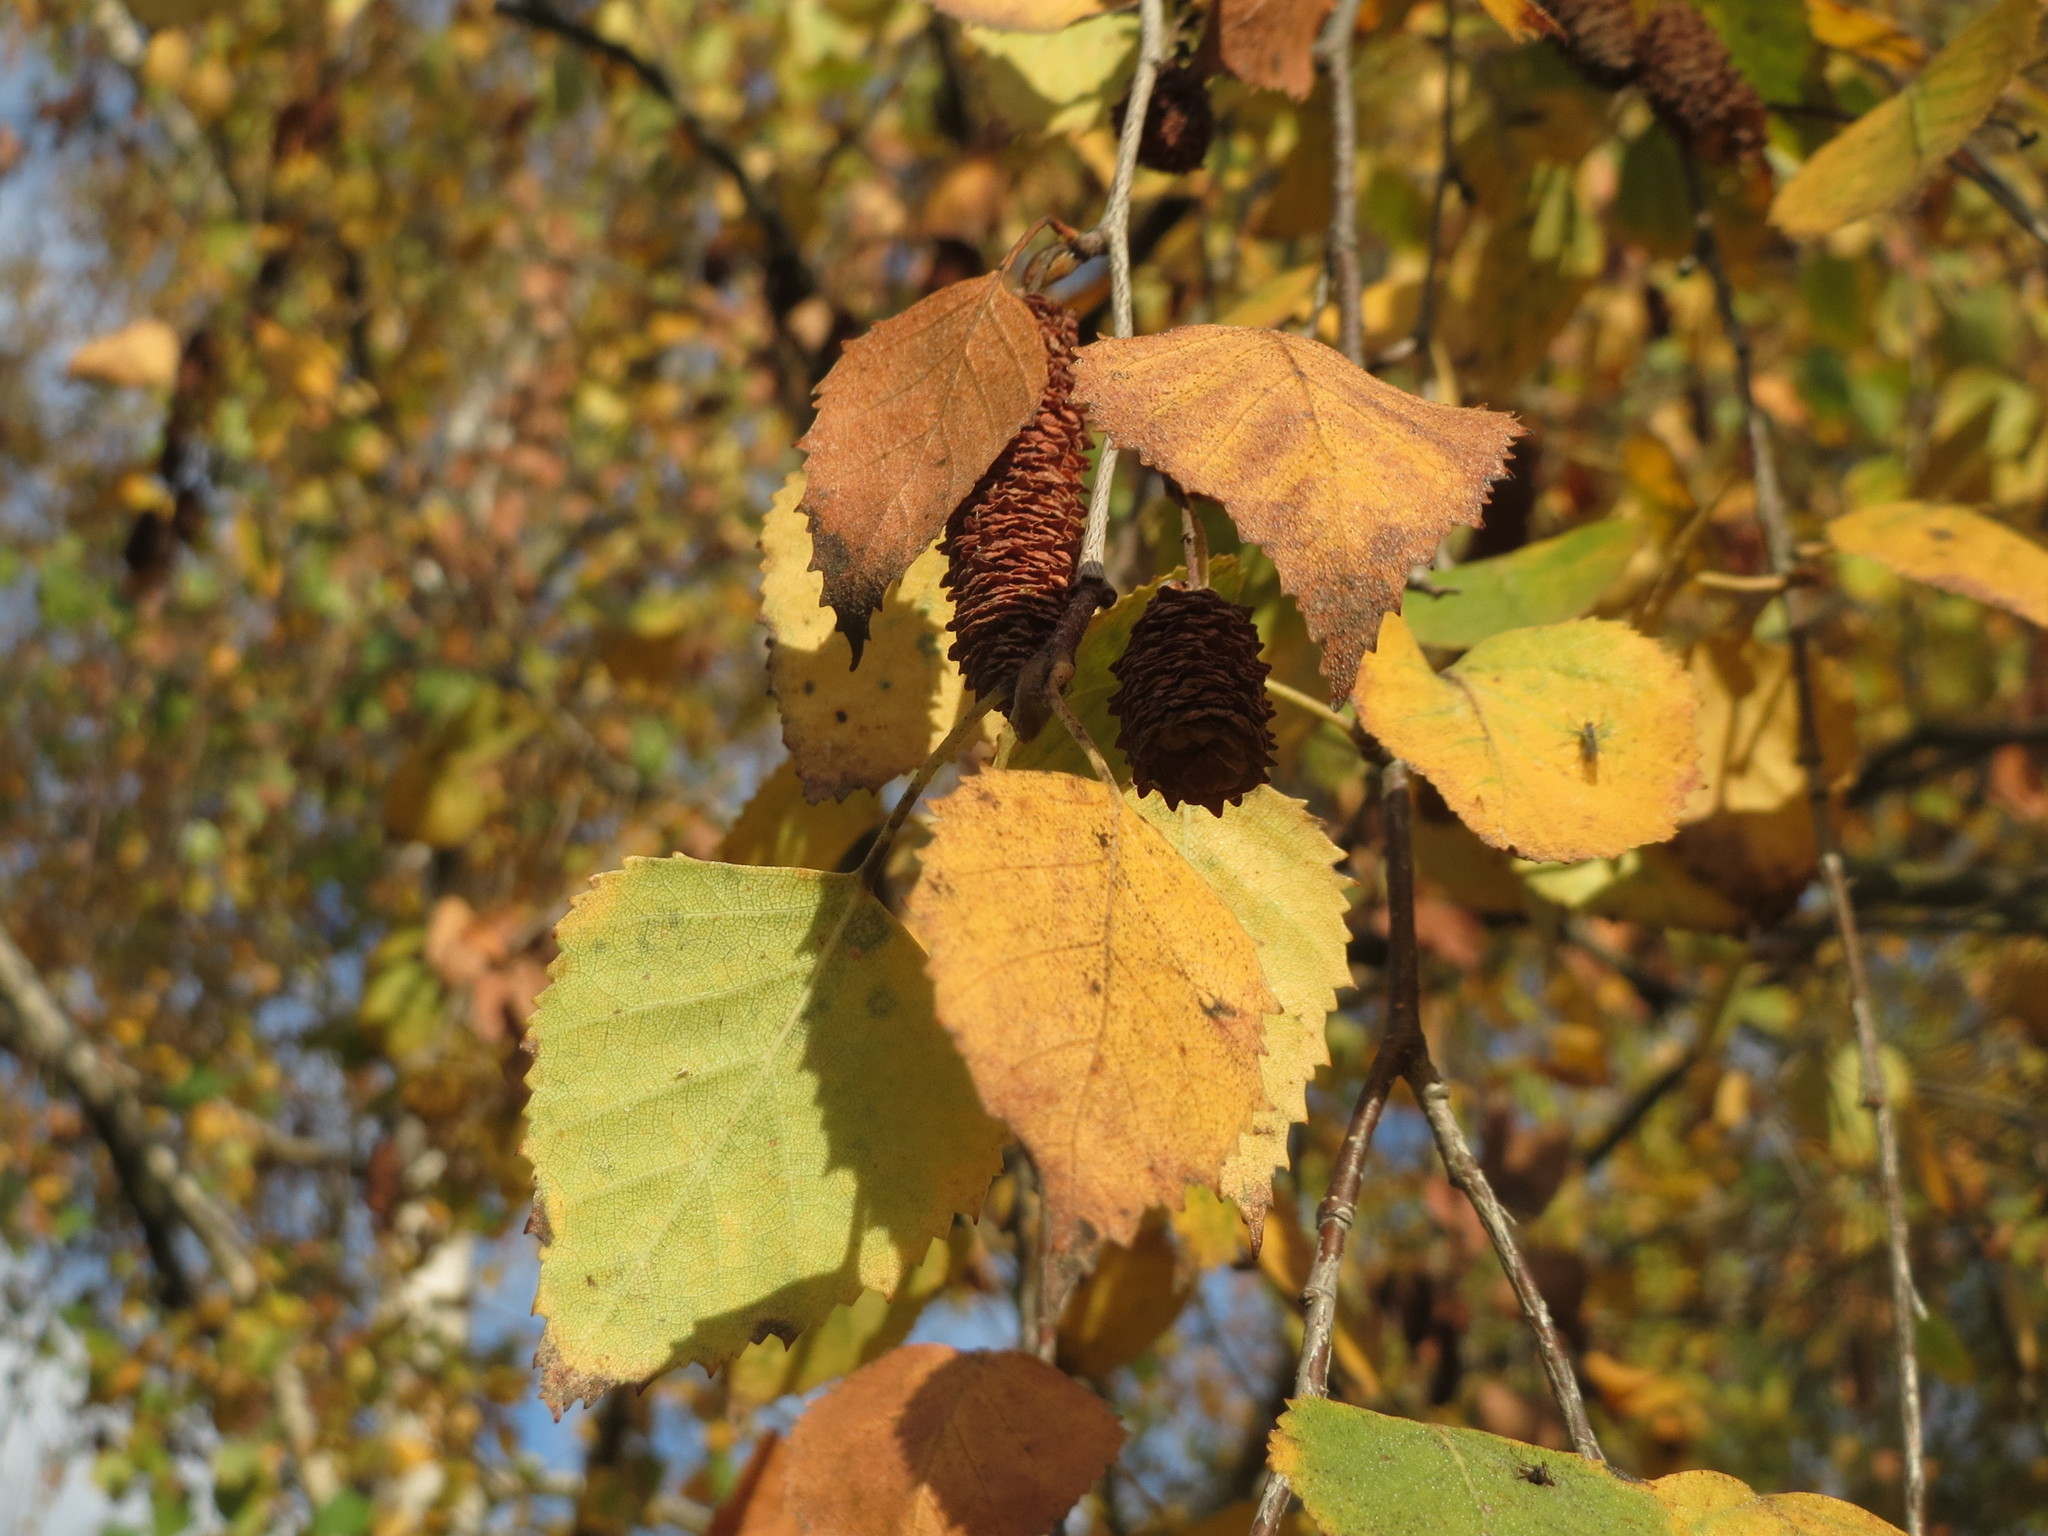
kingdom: Plantae
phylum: Tracheophyta
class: Magnoliopsida
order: Fagales
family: Betulaceae
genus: Betula
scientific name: Betula pendula
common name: Silver birch
